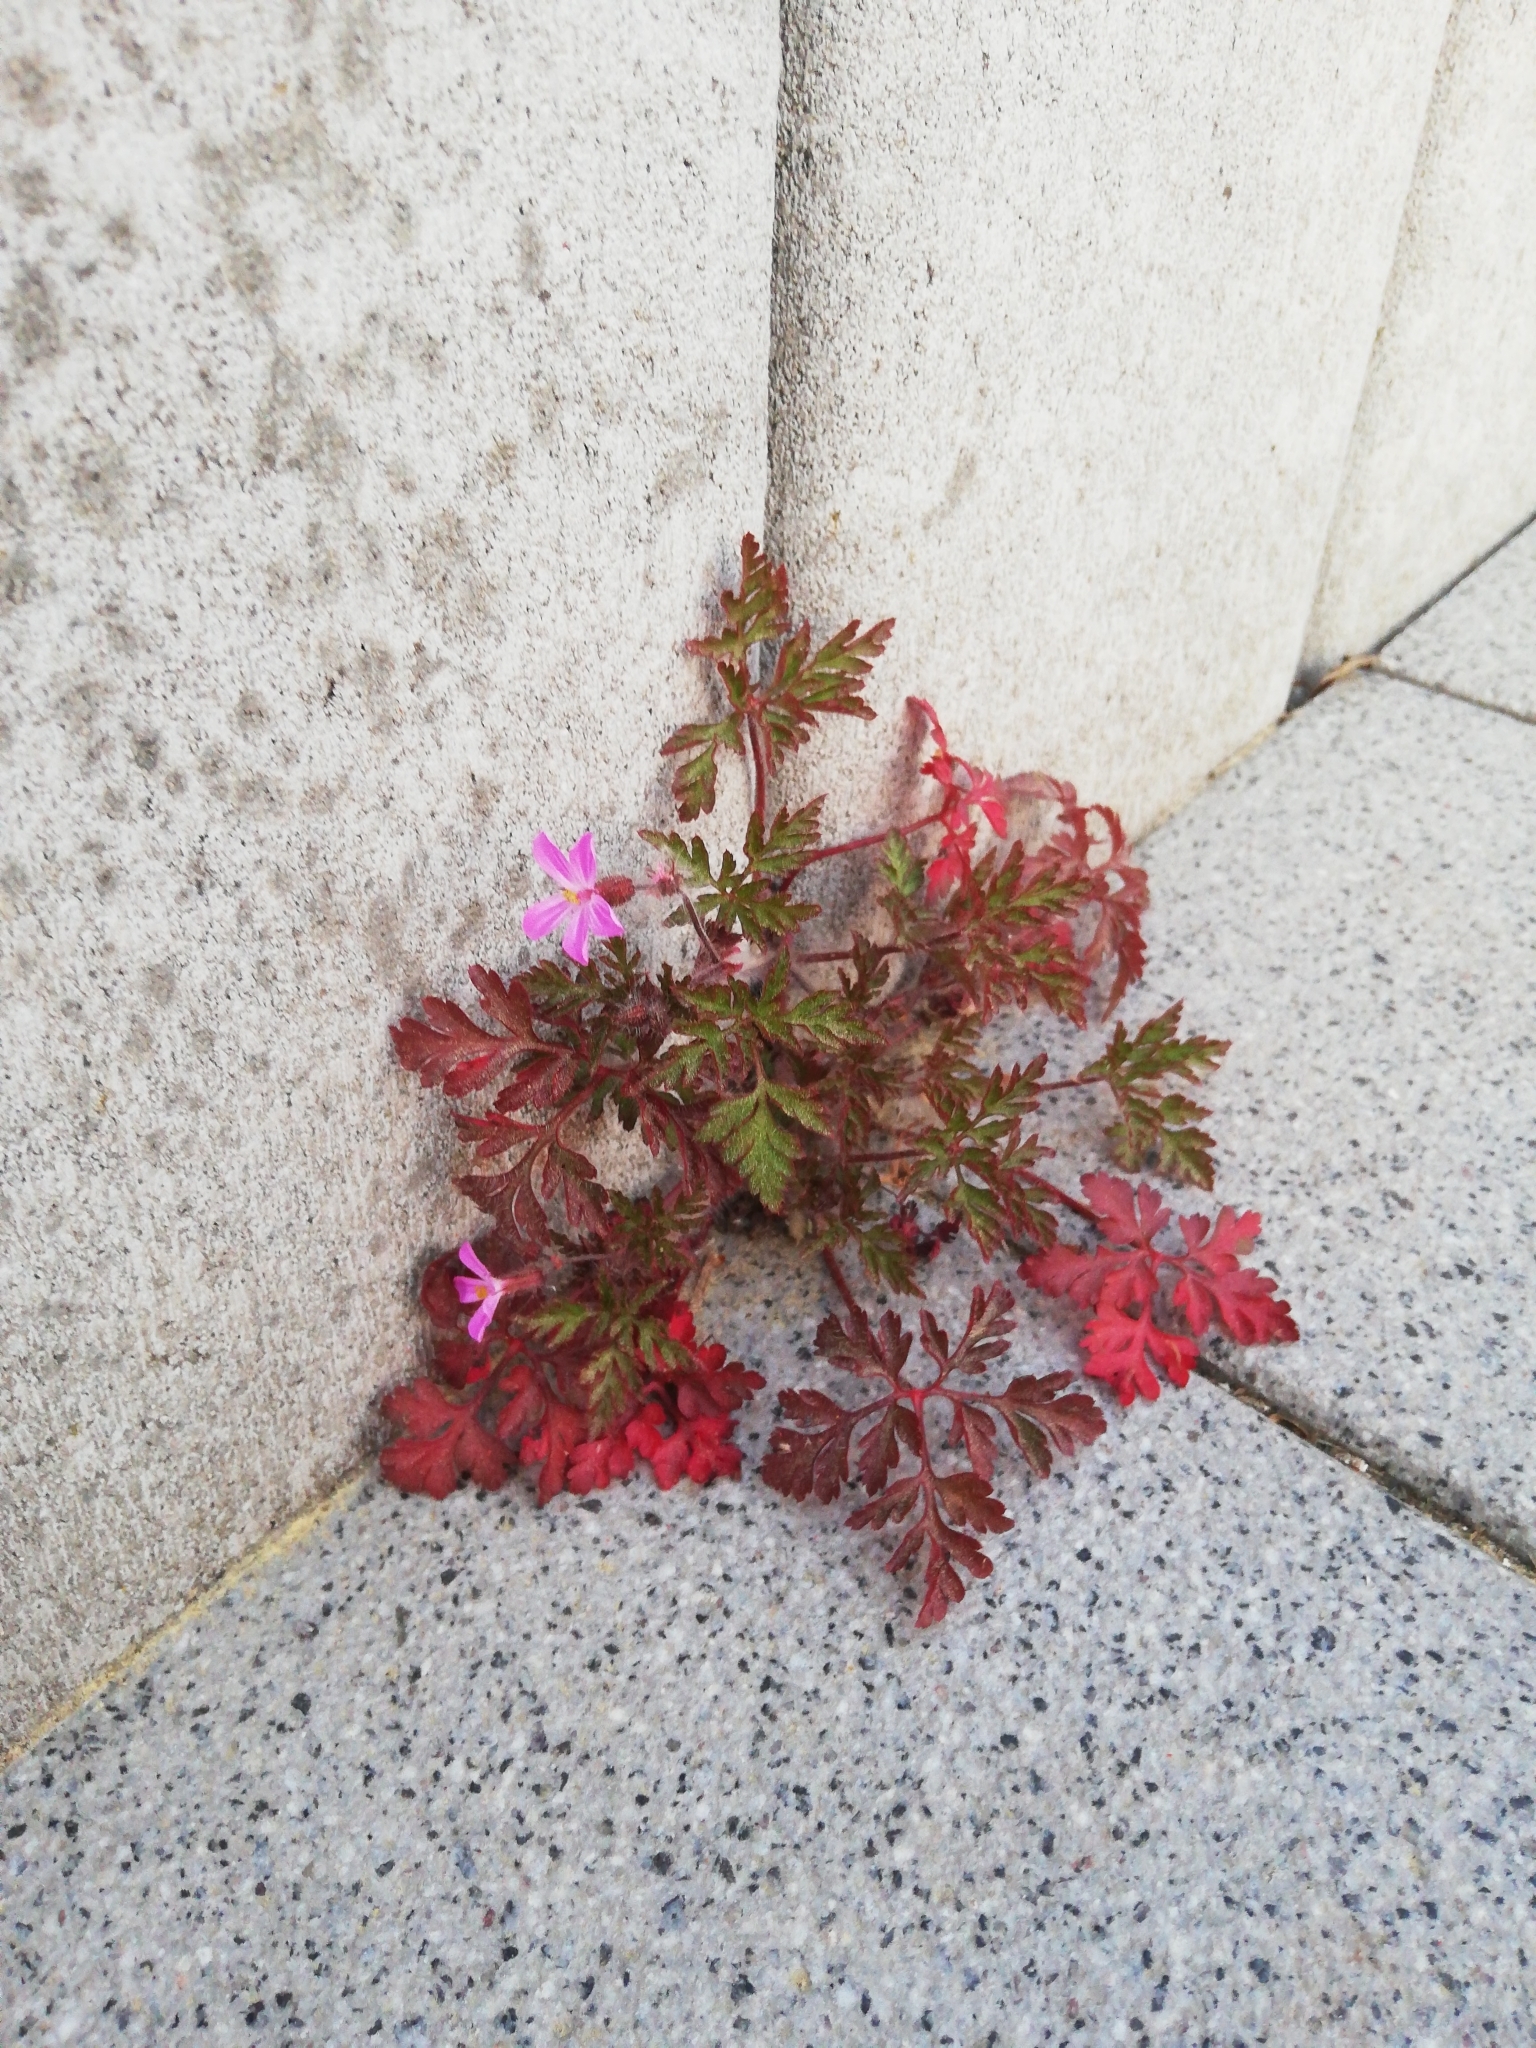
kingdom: Plantae
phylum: Tracheophyta
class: Magnoliopsida
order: Geraniales
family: Geraniaceae
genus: Geranium
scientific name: Geranium robertianum
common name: Herb-robert
